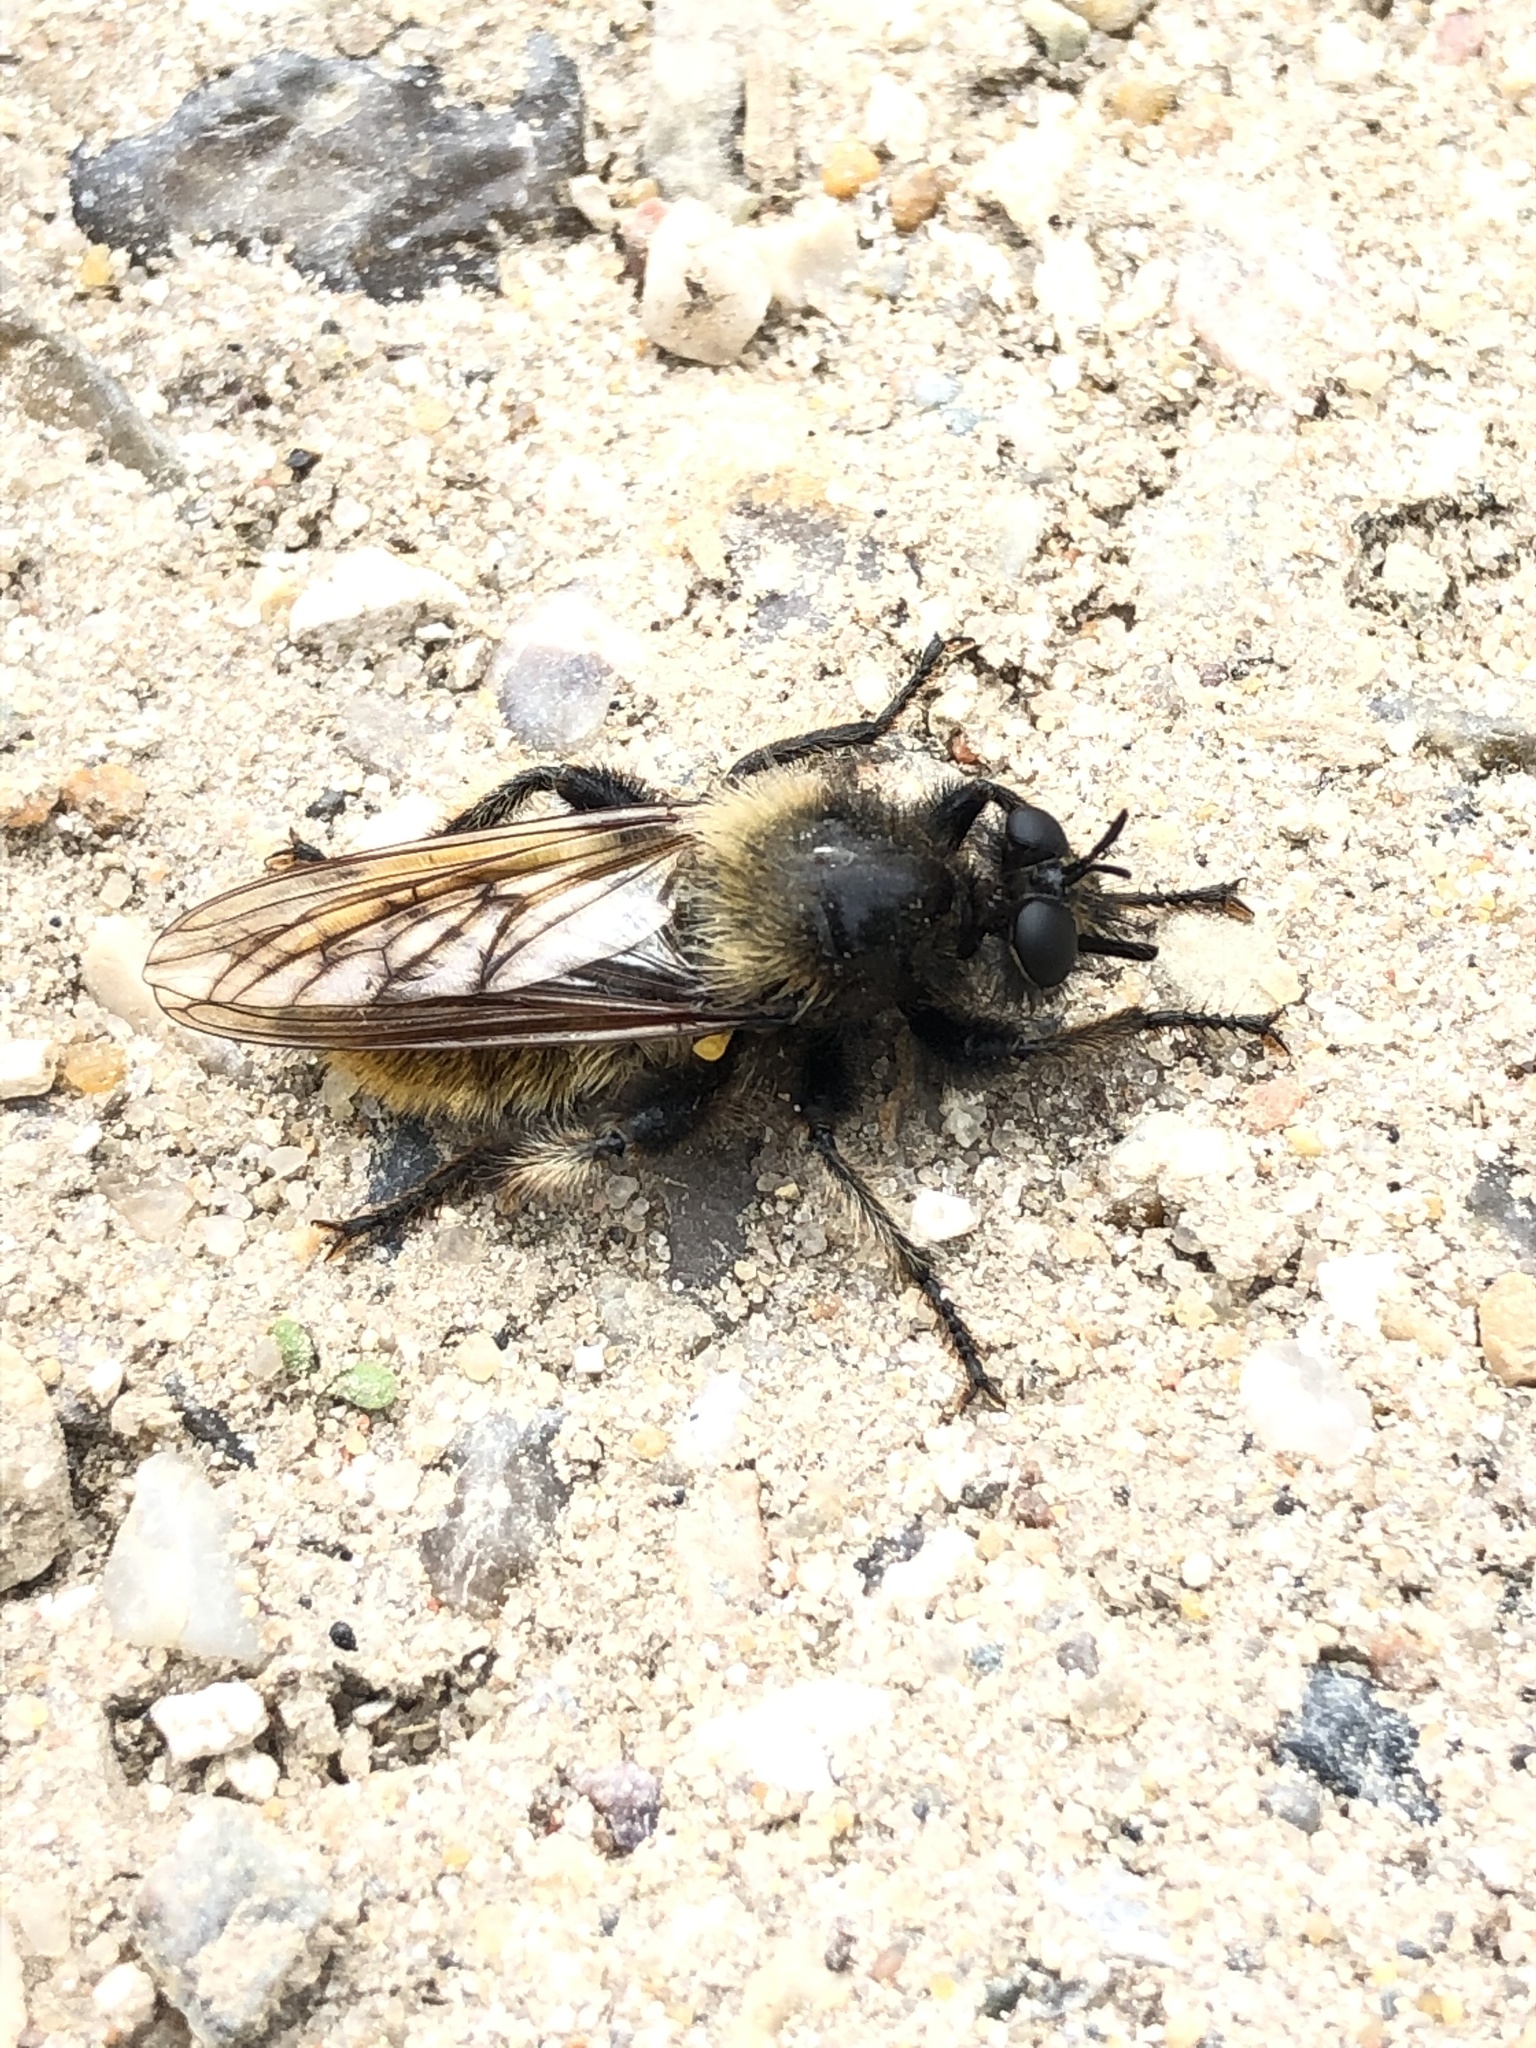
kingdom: Animalia
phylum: Arthropoda
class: Insecta
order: Diptera
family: Asilidae
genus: Laphria
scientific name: Laphria flava
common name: Bumblebee robberfly
